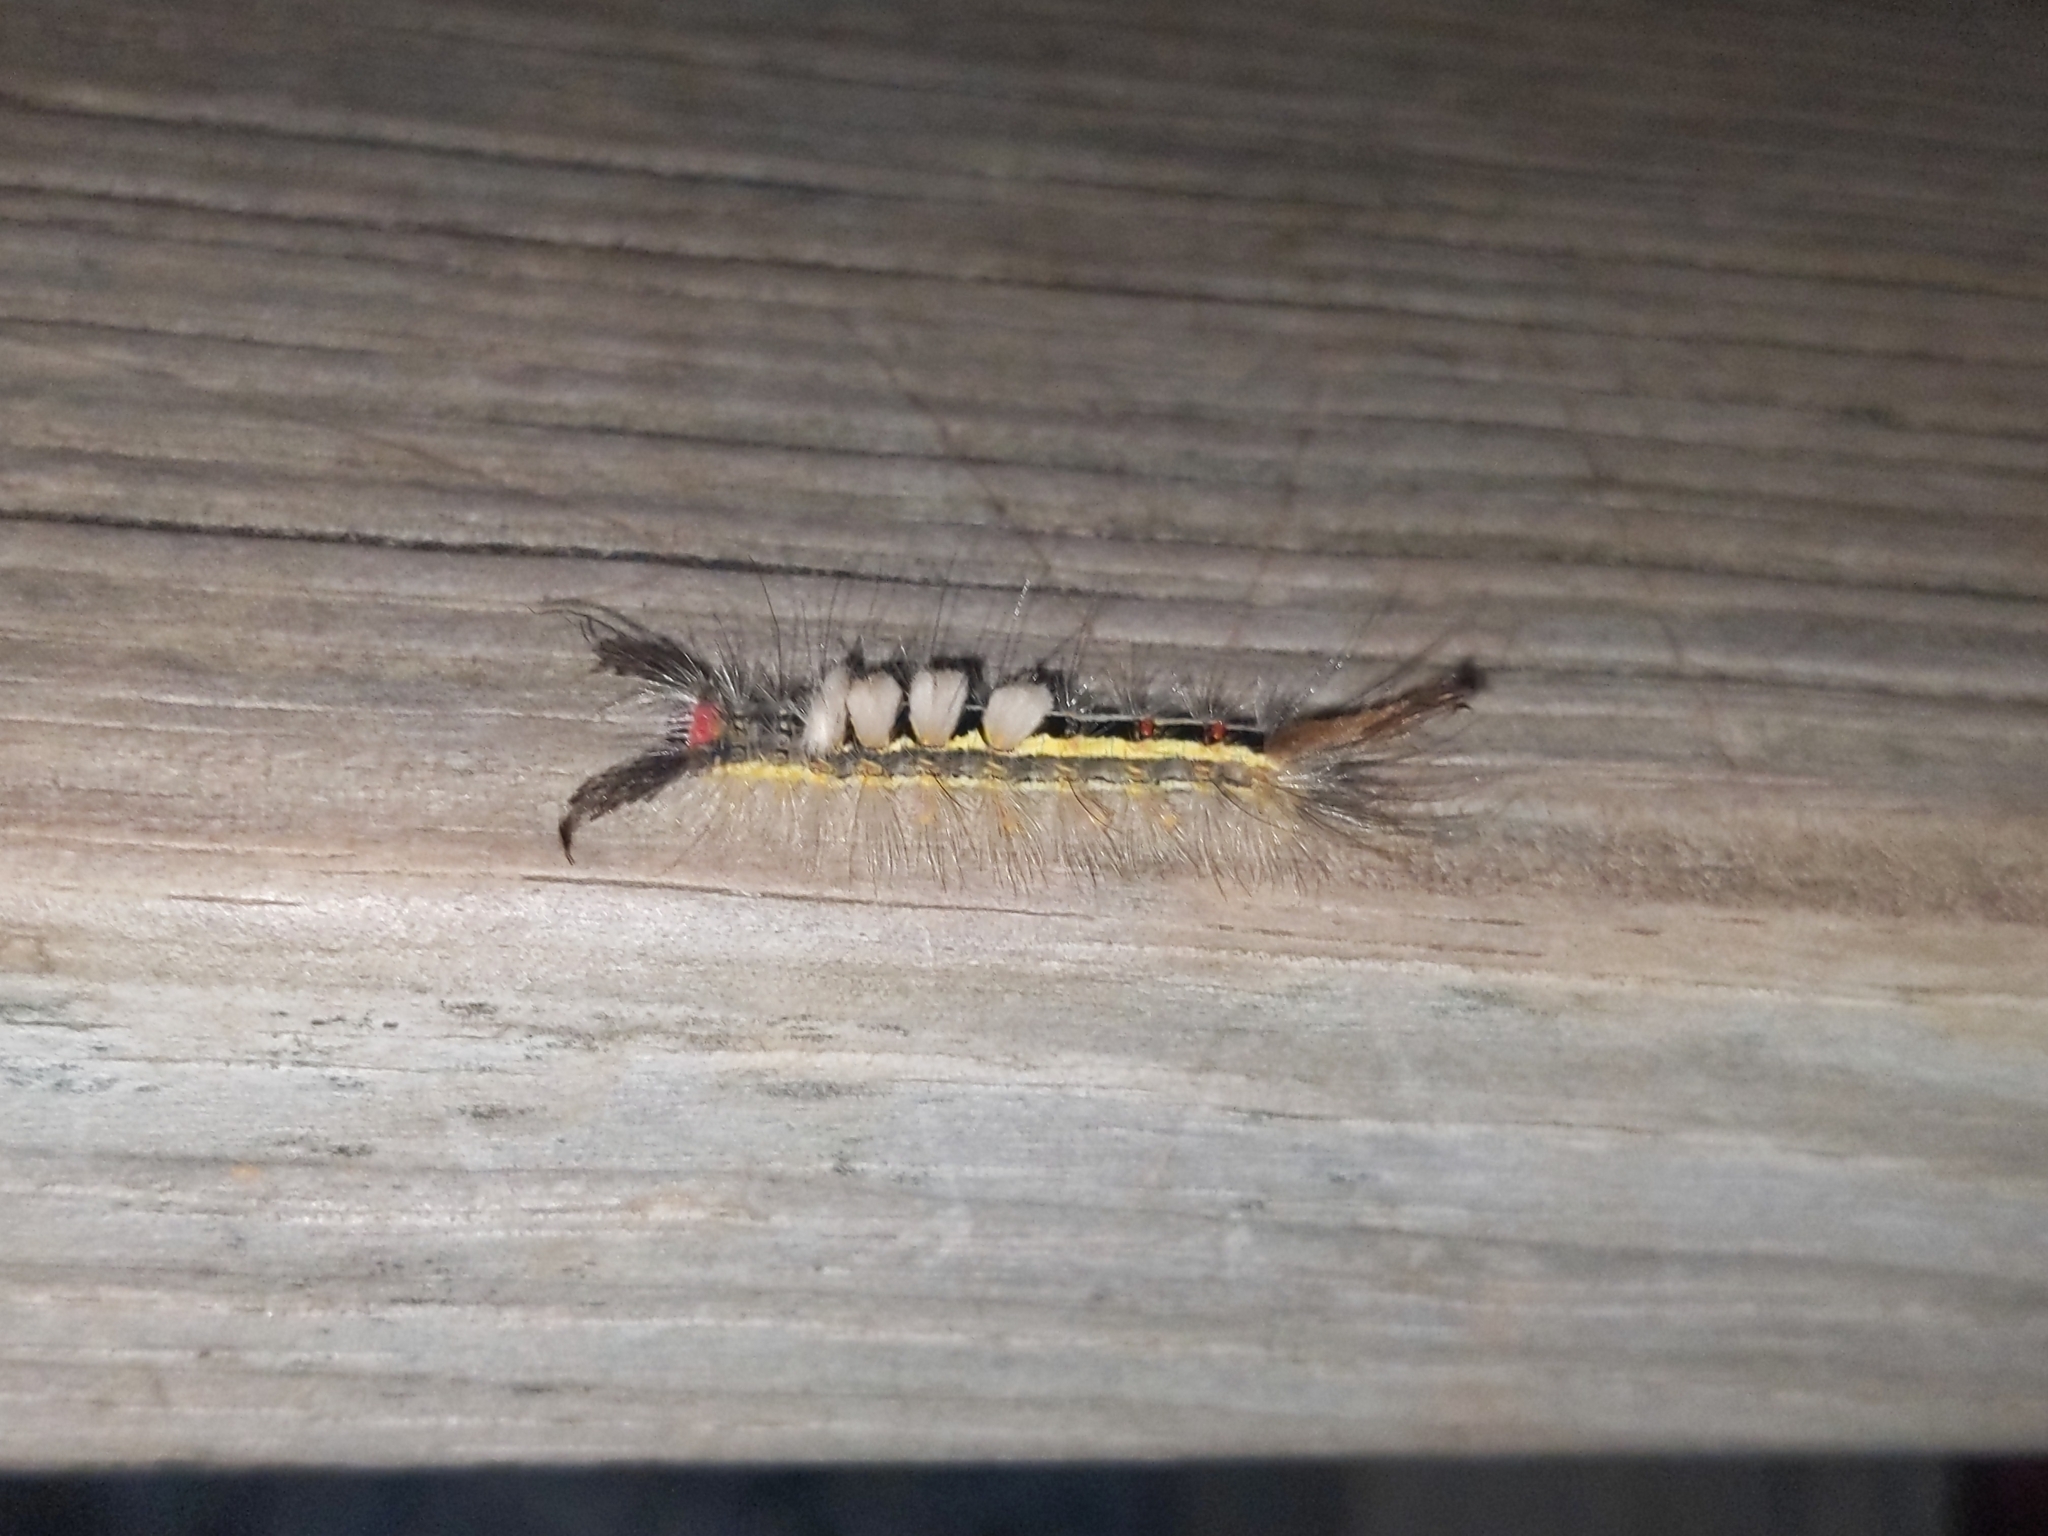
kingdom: Animalia
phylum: Arthropoda
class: Insecta
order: Lepidoptera
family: Erebidae
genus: Orgyia
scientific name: Orgyia leucostigma
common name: White-marked tussock moth
